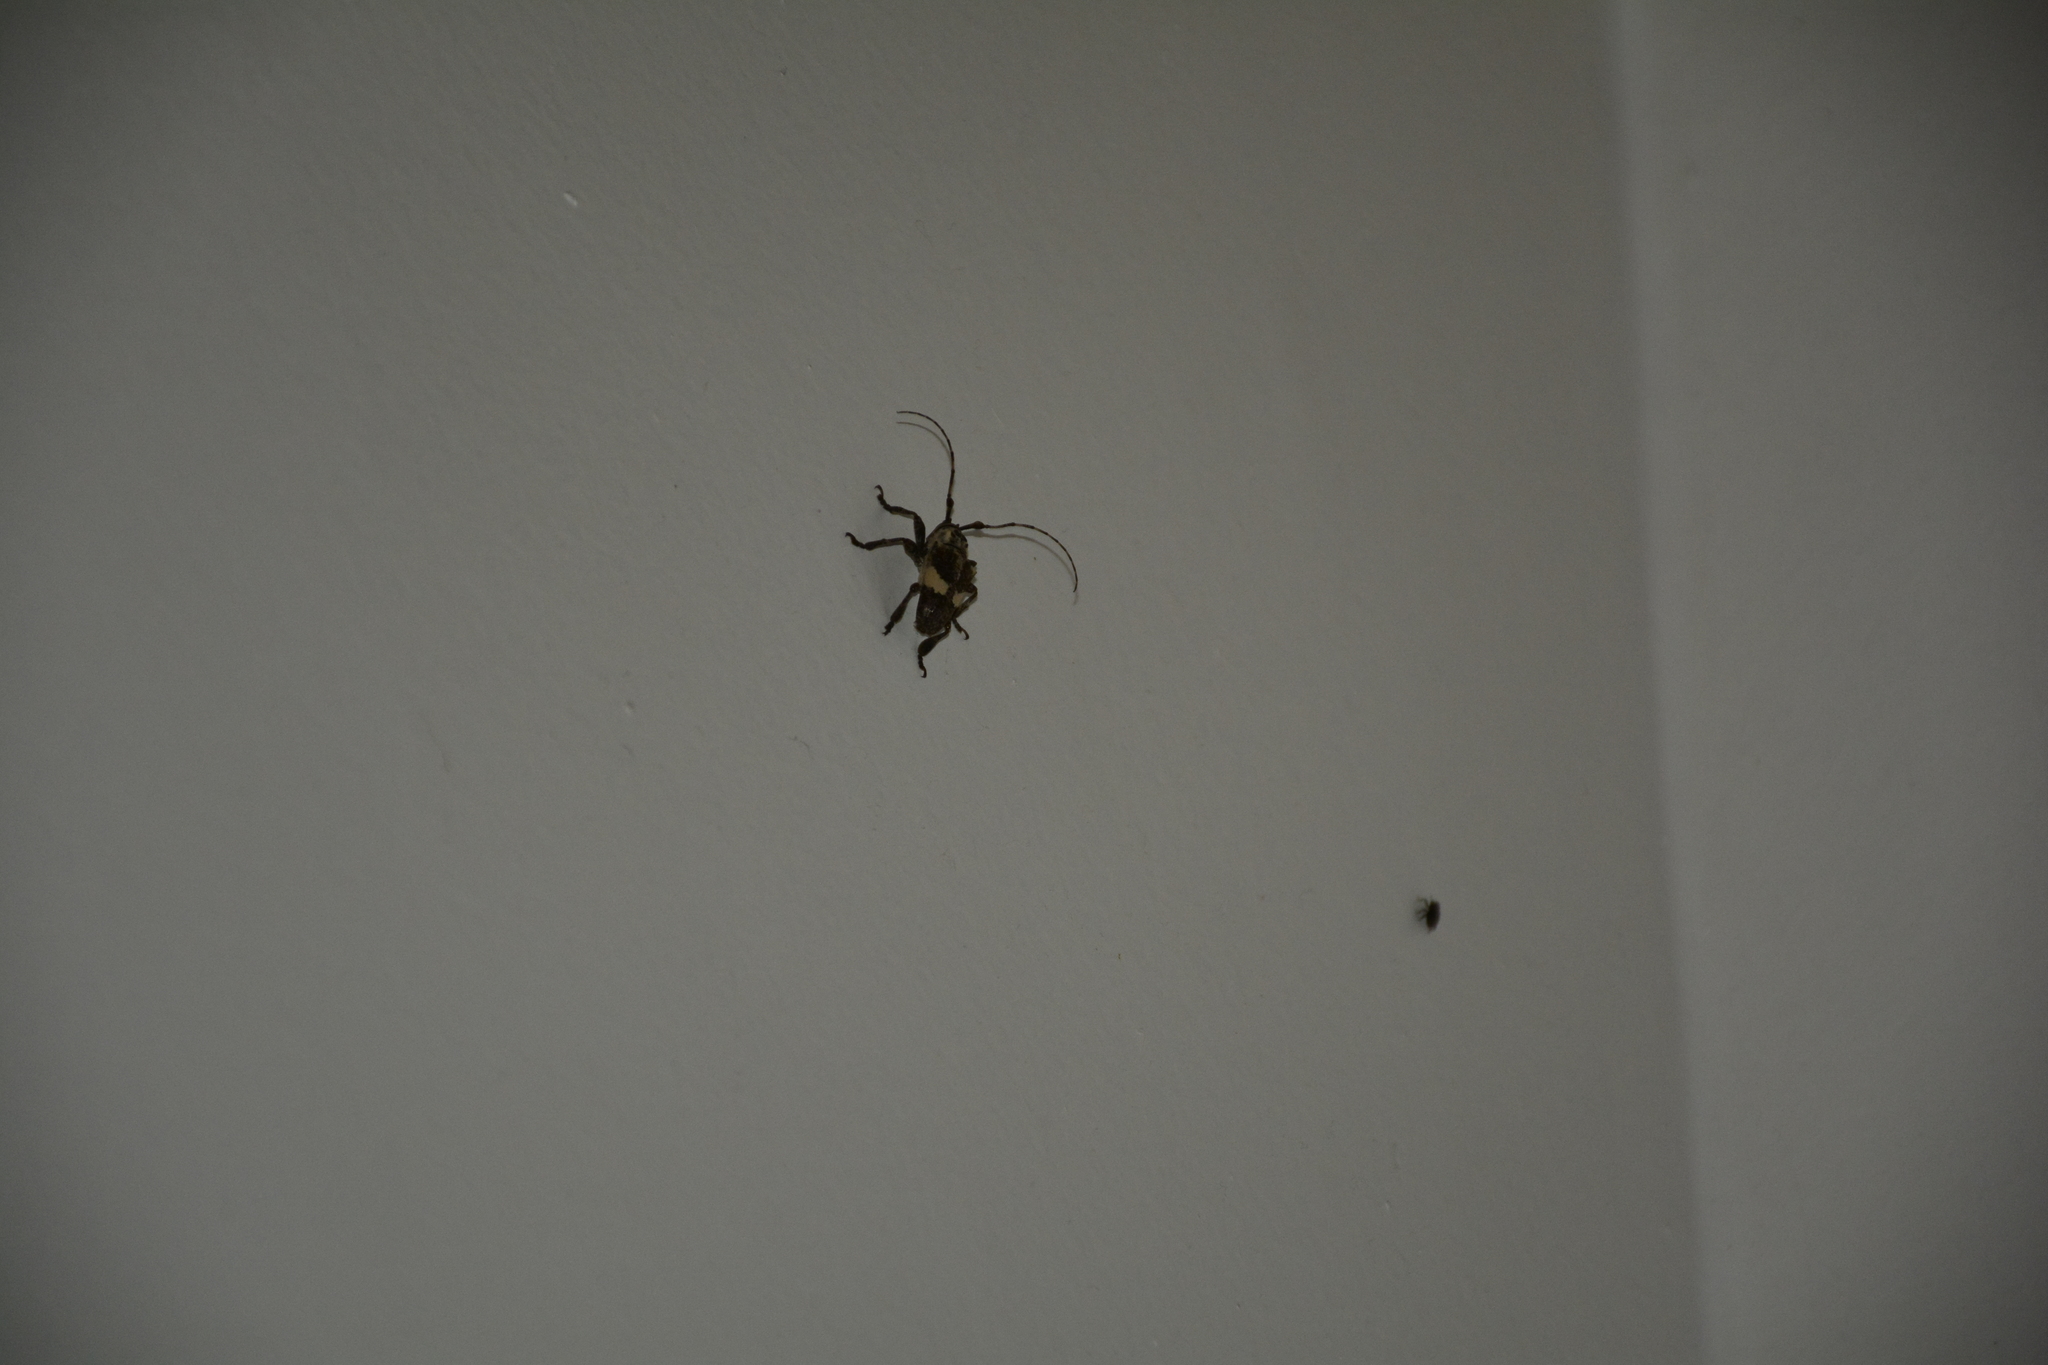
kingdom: Animalia
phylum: Arthropoda
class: Insecta
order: Coleoptera
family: Cerambycidae
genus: Cipriscola
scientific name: Cipriscola fasciata
